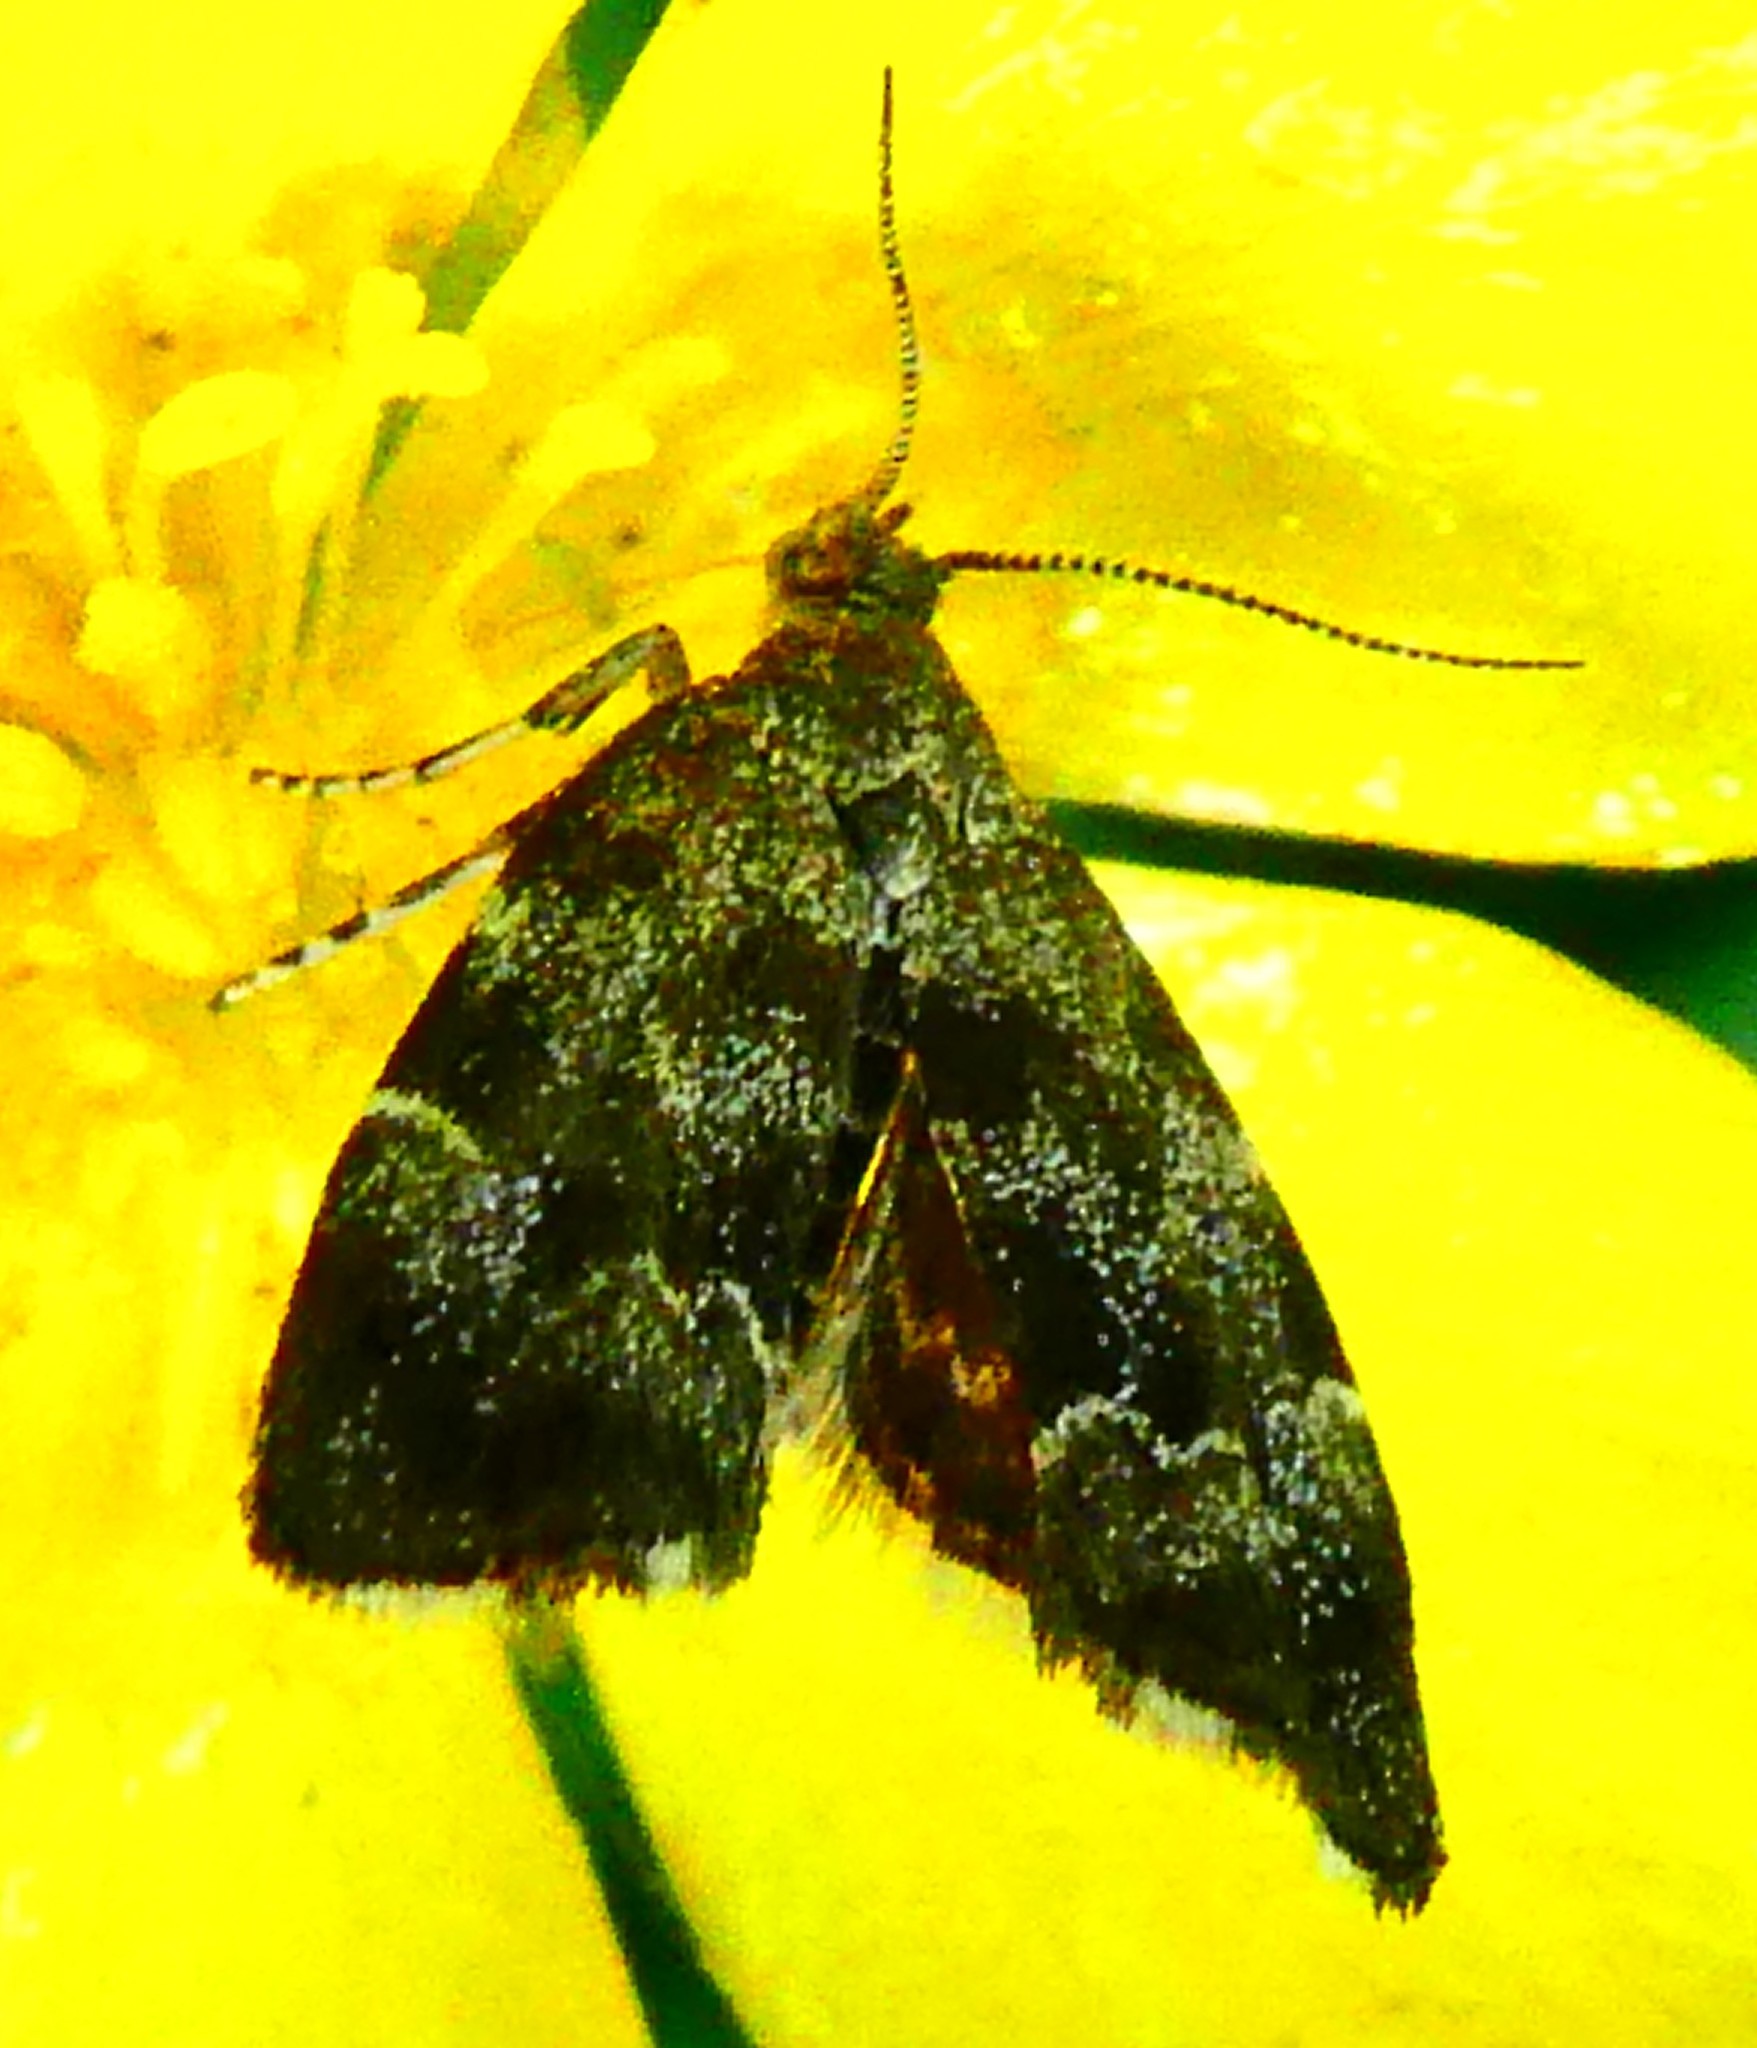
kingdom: Animalia
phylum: Arthropoda
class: Insecta
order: Lepidoptera
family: Choreutidae
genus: Anthophila
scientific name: Anthophila fabriciana
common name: Nettle-tap
